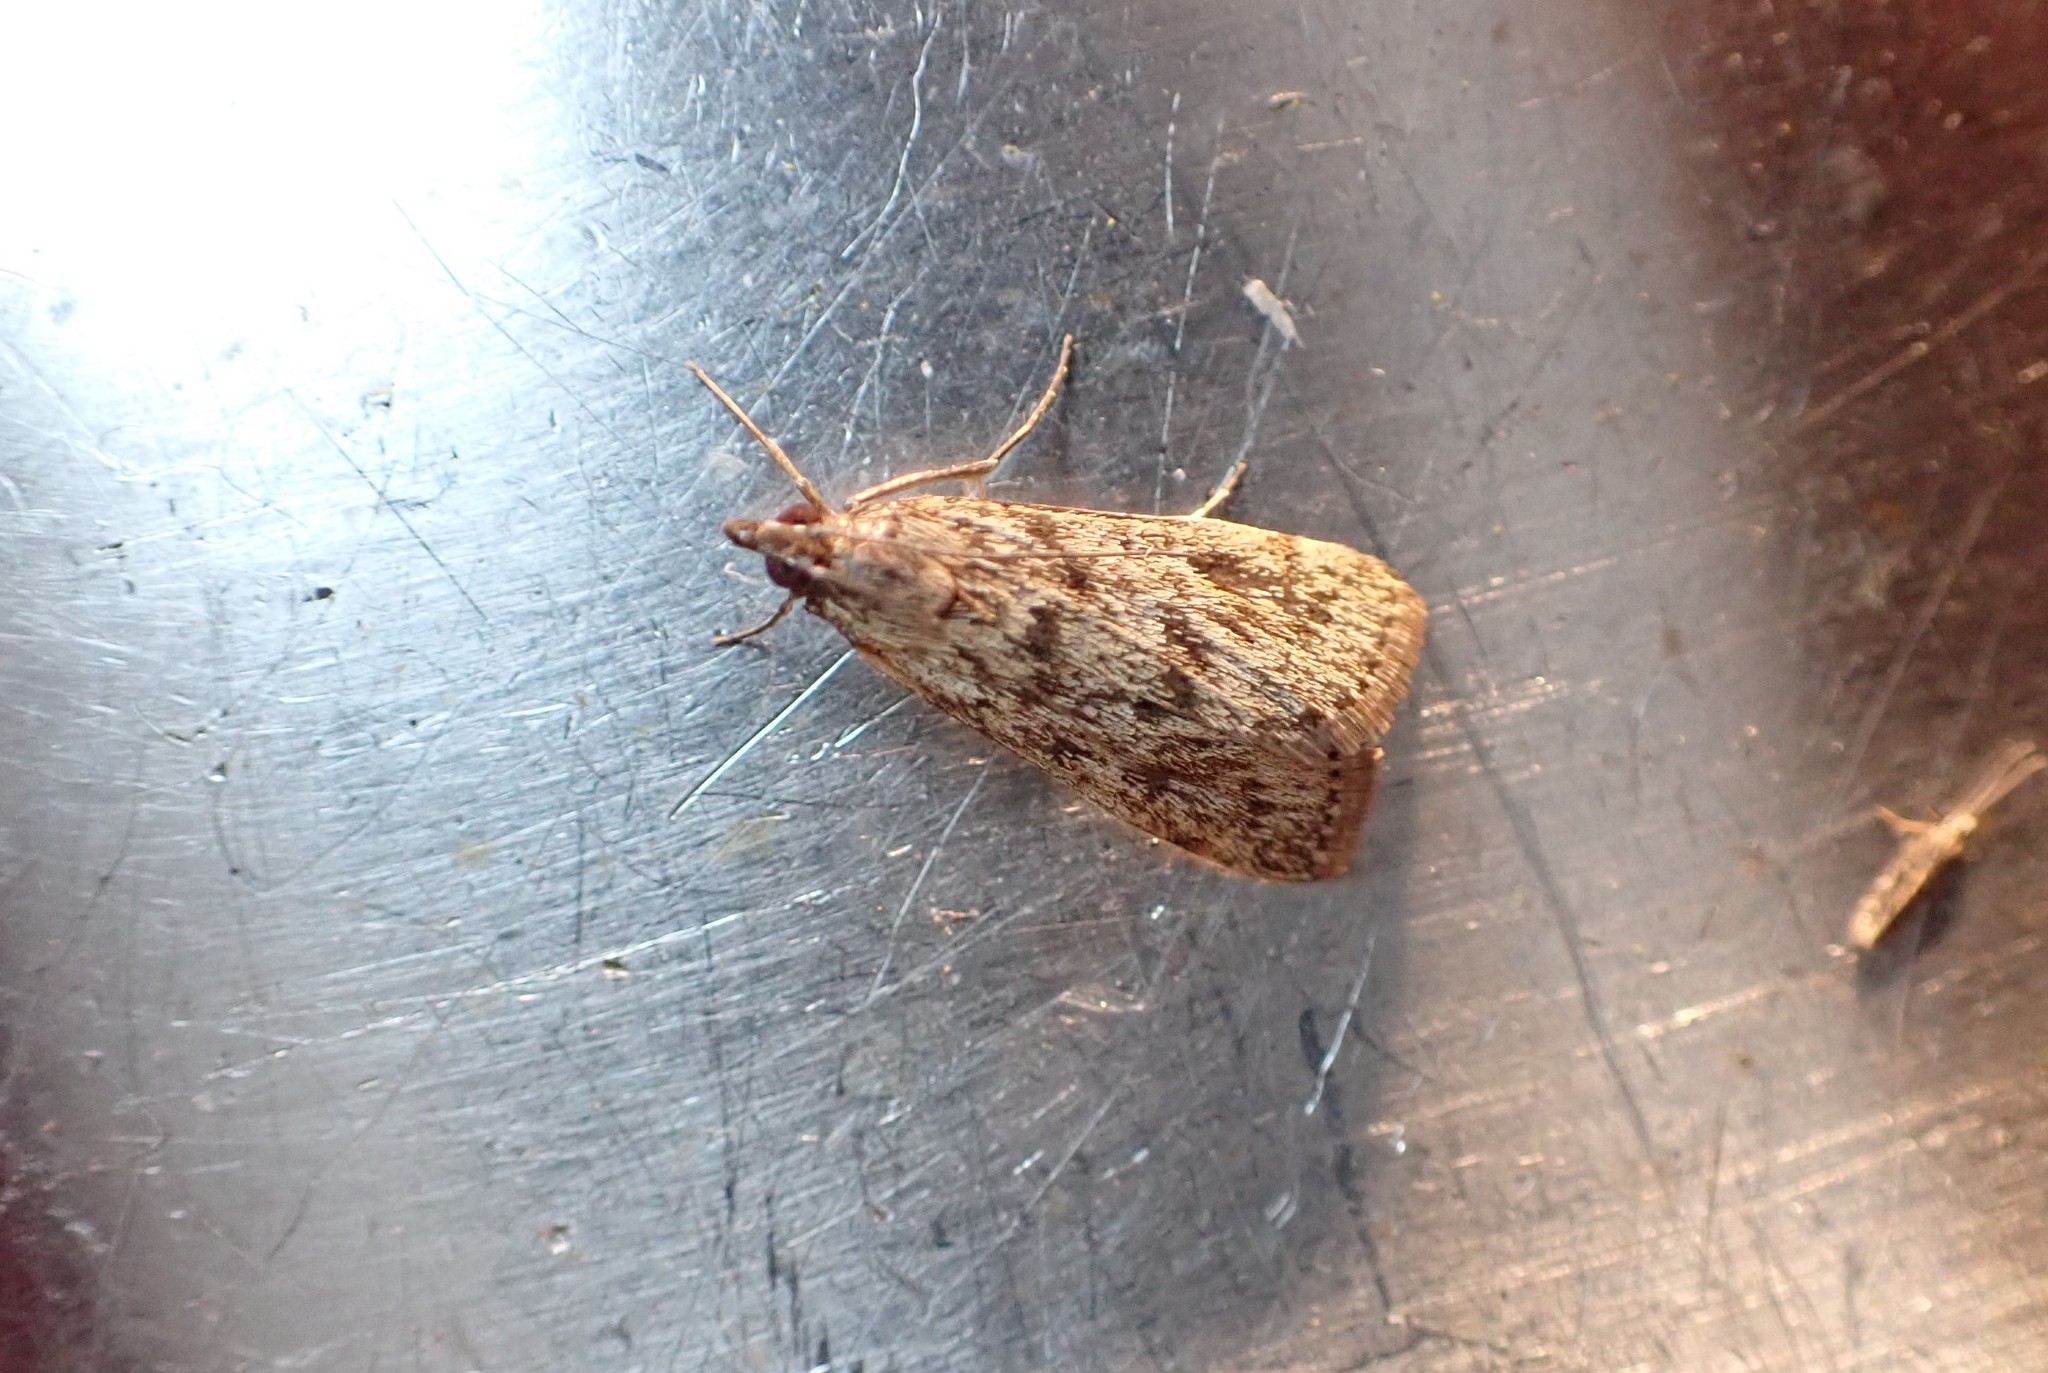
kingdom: Animalia
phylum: Arthropoda
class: Insecta
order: Lepidoptera
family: Crambidae
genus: Achyra
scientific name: Achyra affinitalis
